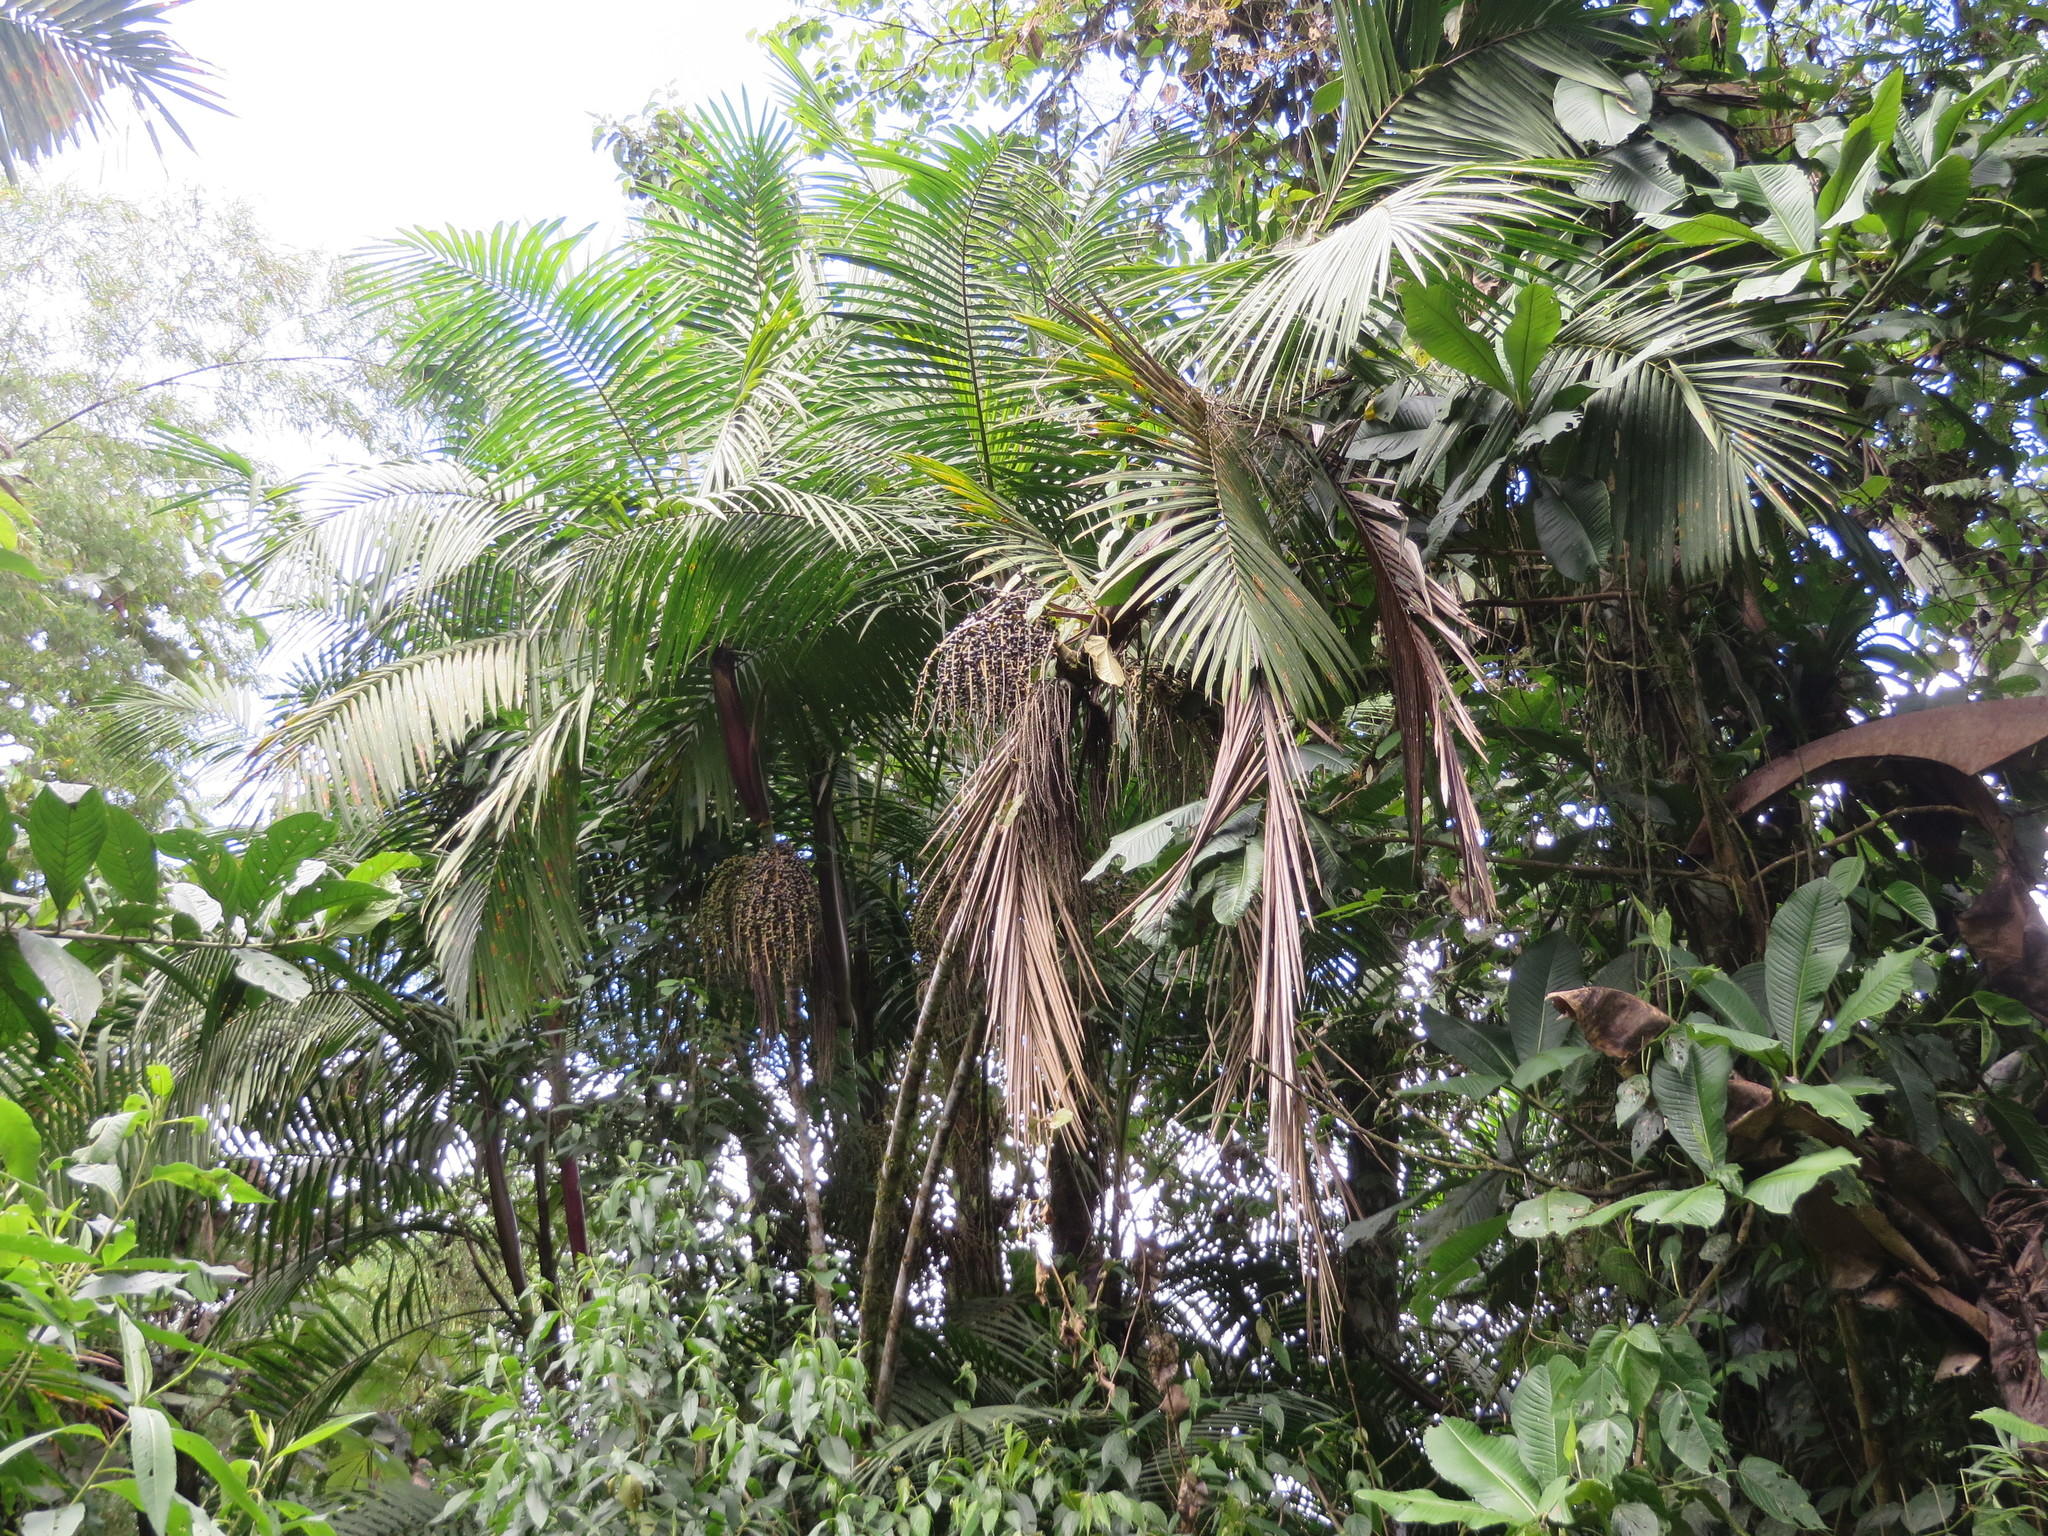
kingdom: Plantae
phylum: Tracheophyta
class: Liliopsida
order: Arecales
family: Arecaceae
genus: Prestoea
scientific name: Prestoea acuminata
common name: Sierran palm
